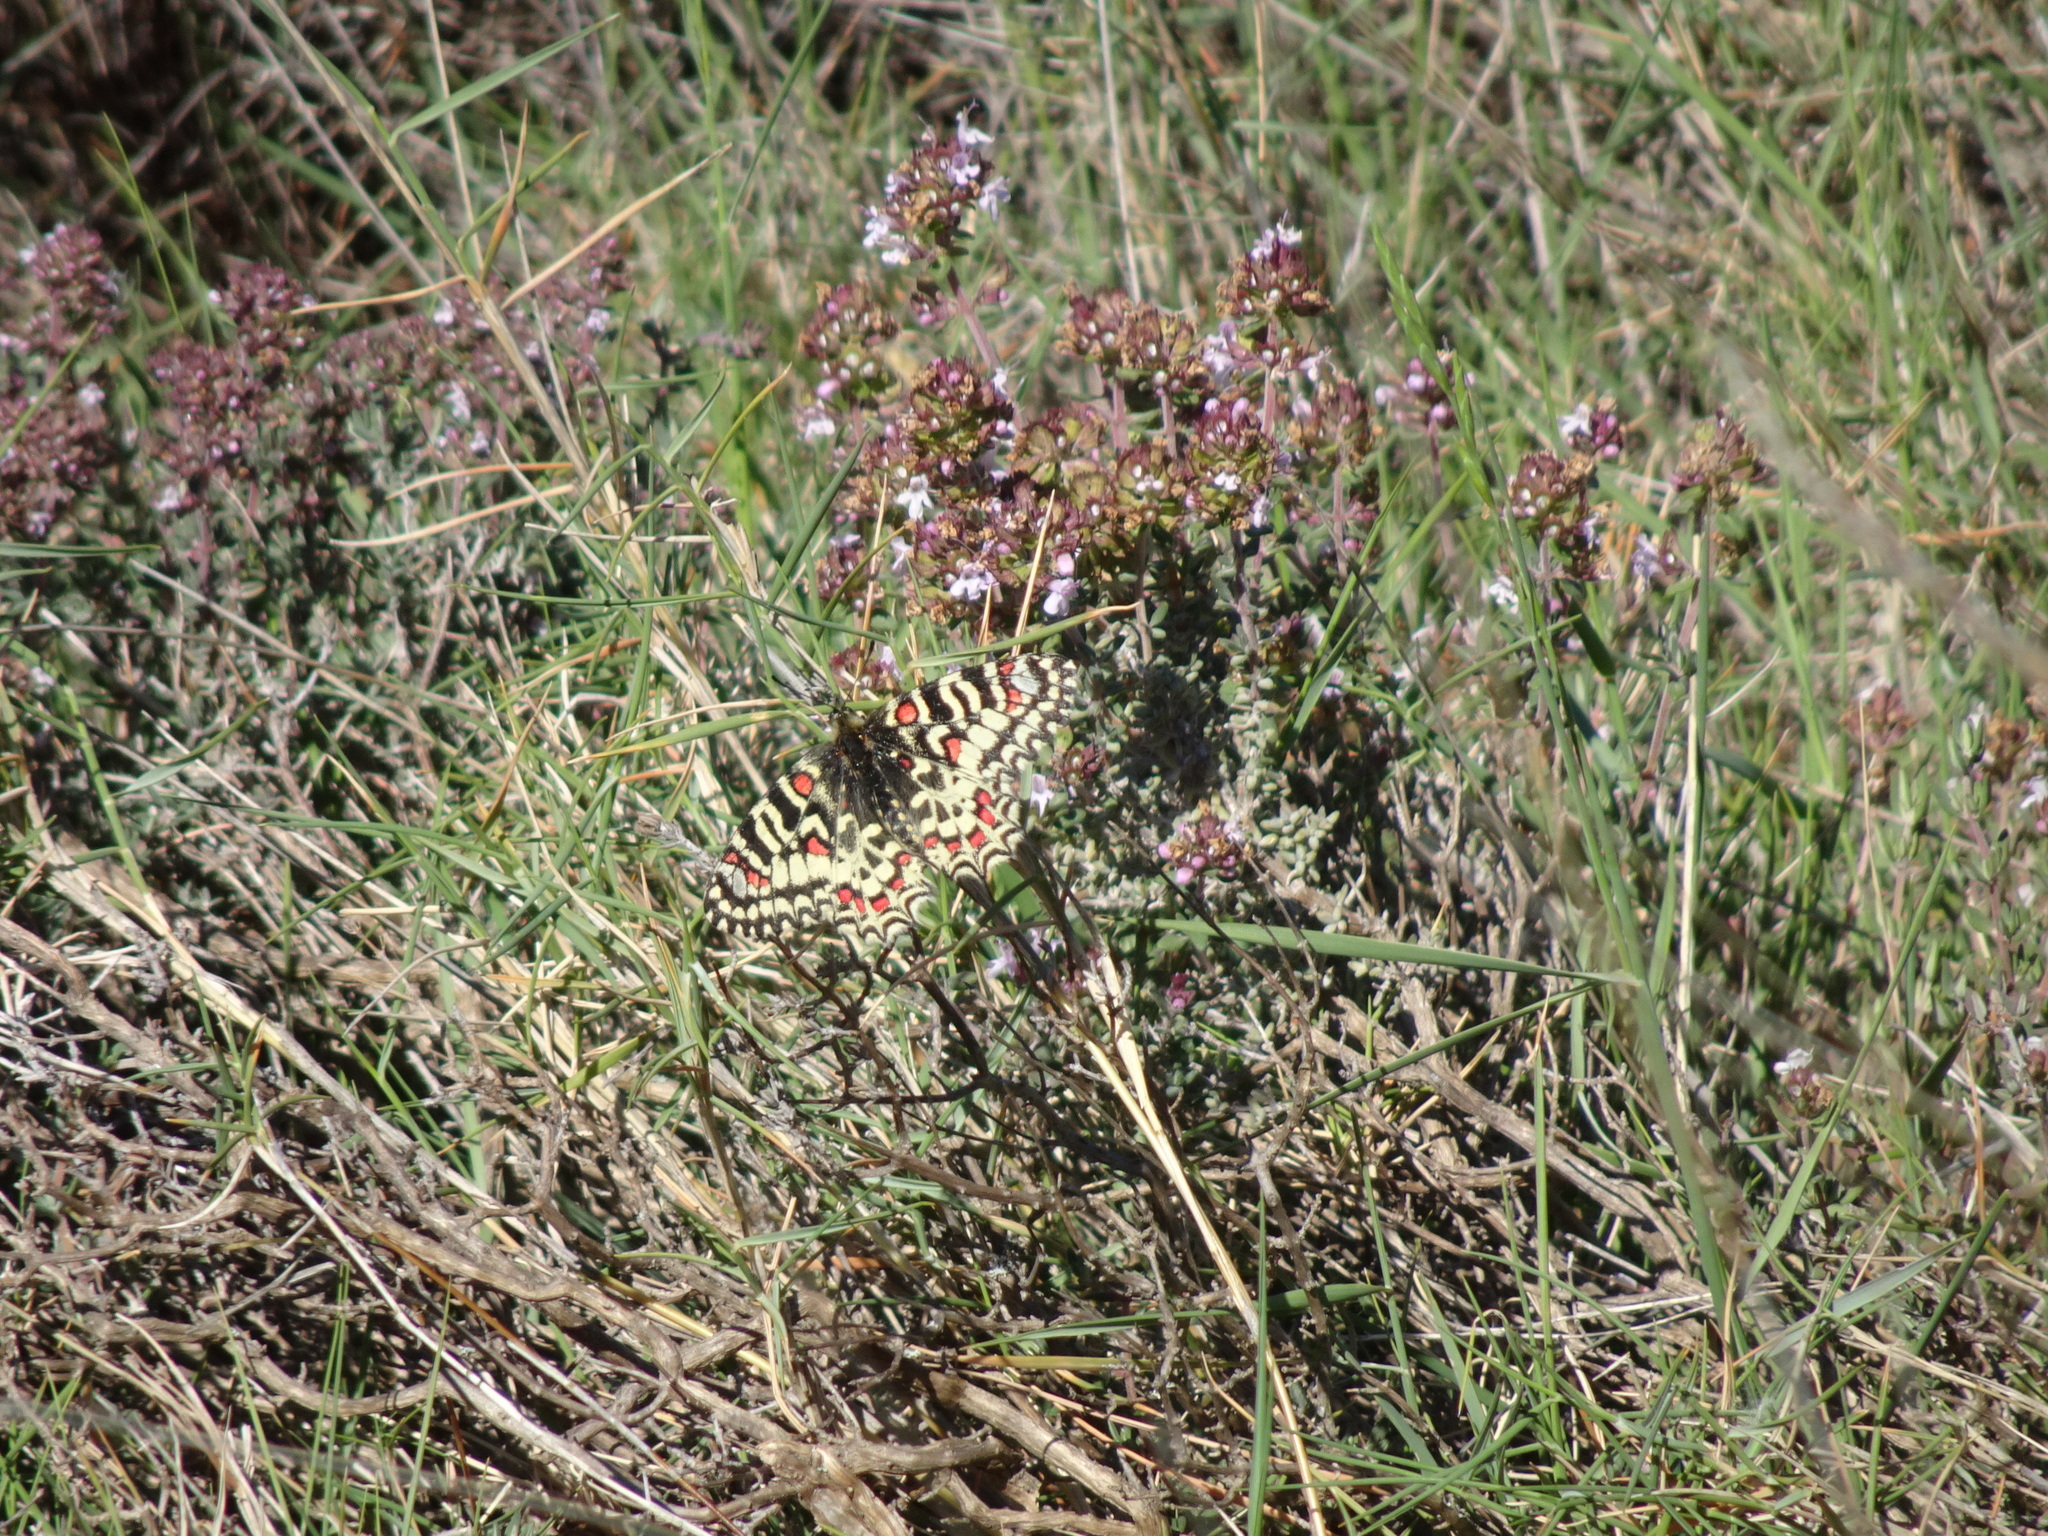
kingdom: Animalia
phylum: Arthropoda
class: Insecta
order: Lepidoptera
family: Papilionidae
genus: Zerynthia
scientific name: Zerynthia rumina
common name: Spanish festoon
